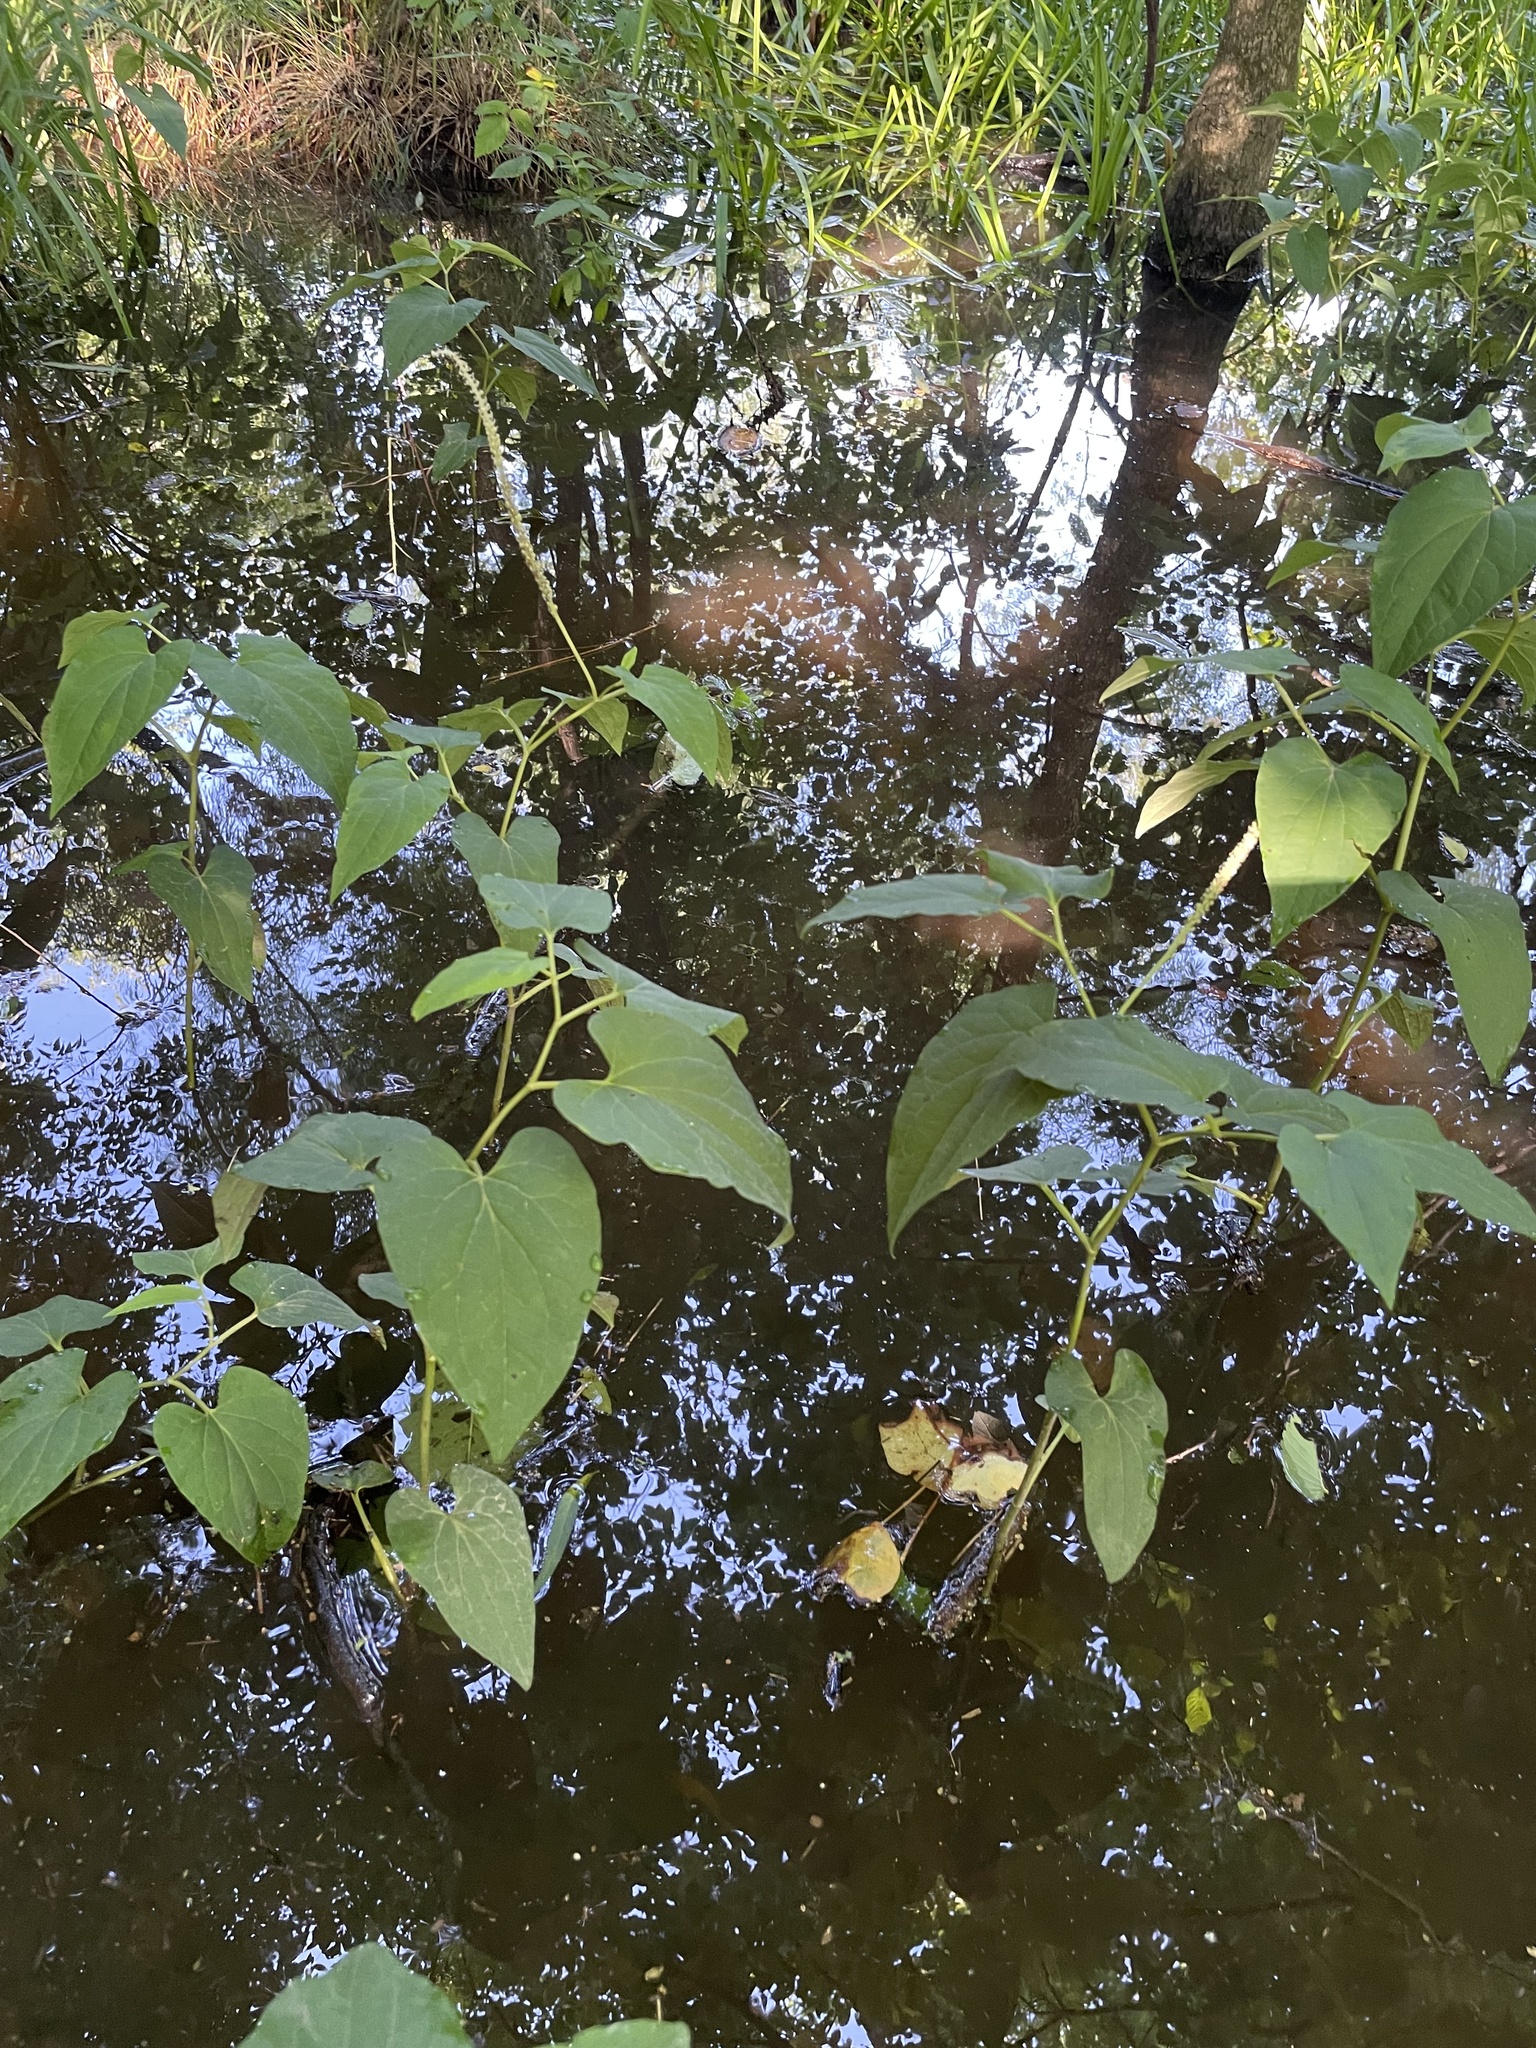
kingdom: Plantae
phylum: Tracheophyta
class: Magnoliopsida
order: Piperales
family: Saururaceae
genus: Saururus
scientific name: Saururus cernuus
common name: Lizard's-tail
